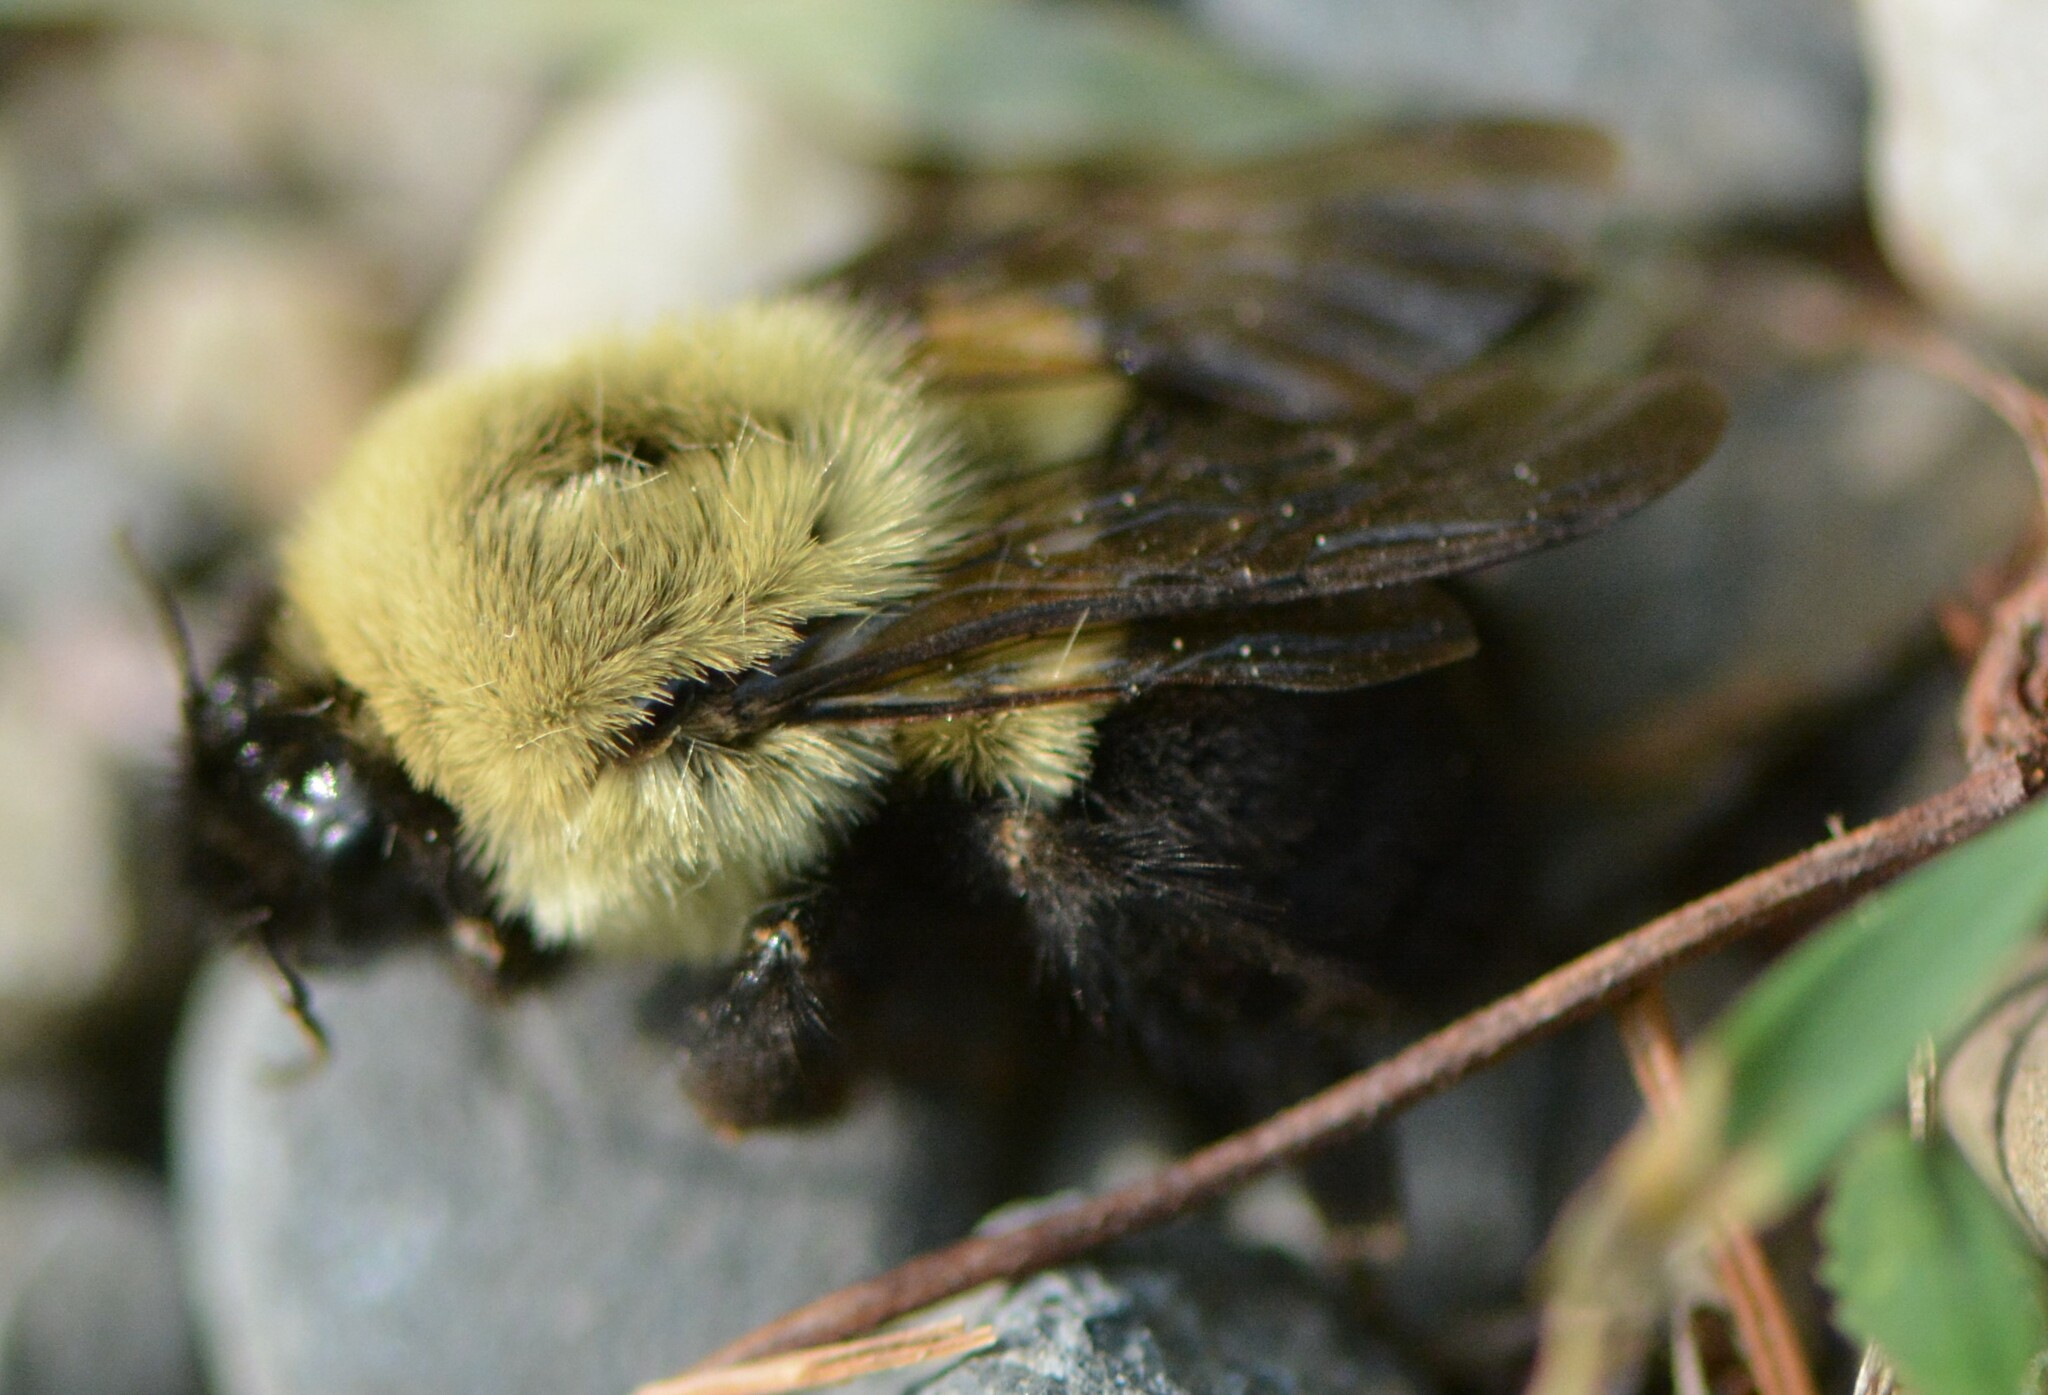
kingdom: Animalia
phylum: Arthropoda
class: Insecta
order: Hymenoptera
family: Apidae
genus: Bombus
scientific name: Bombus impatiens
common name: Common eastern bumble bee
